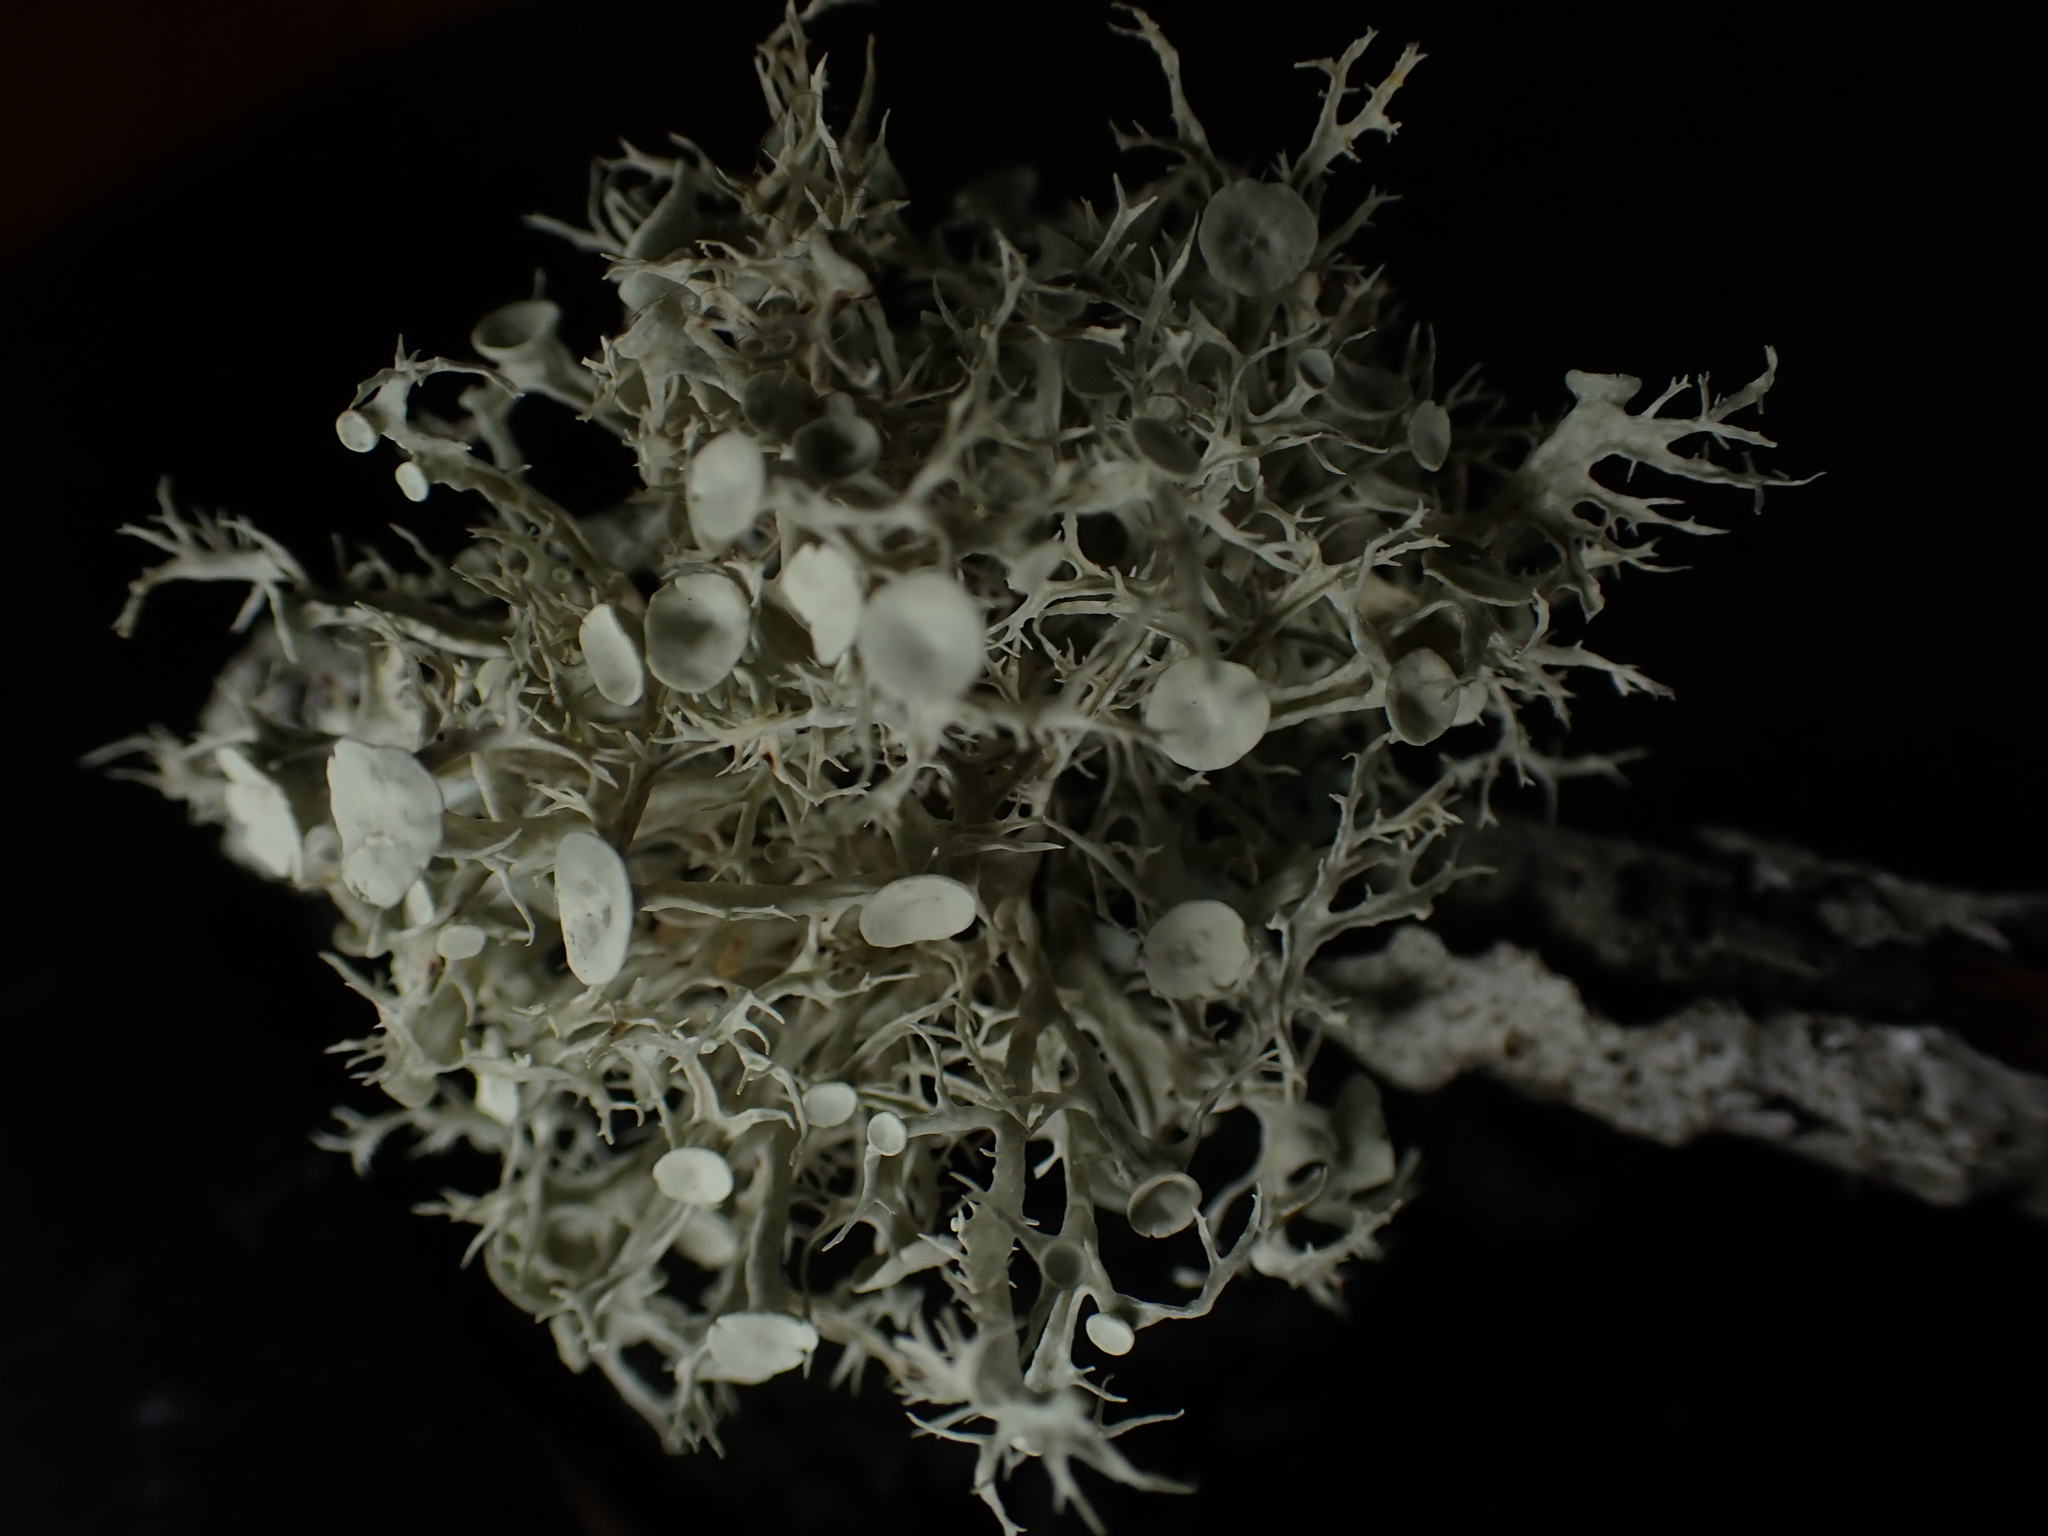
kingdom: Fungi
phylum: Ascomycota
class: Lecanoromycetes
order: Lecanorales
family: Ramalinaceae
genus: Ramalina
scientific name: Ramalina americana
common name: Sinewed bush lichen
